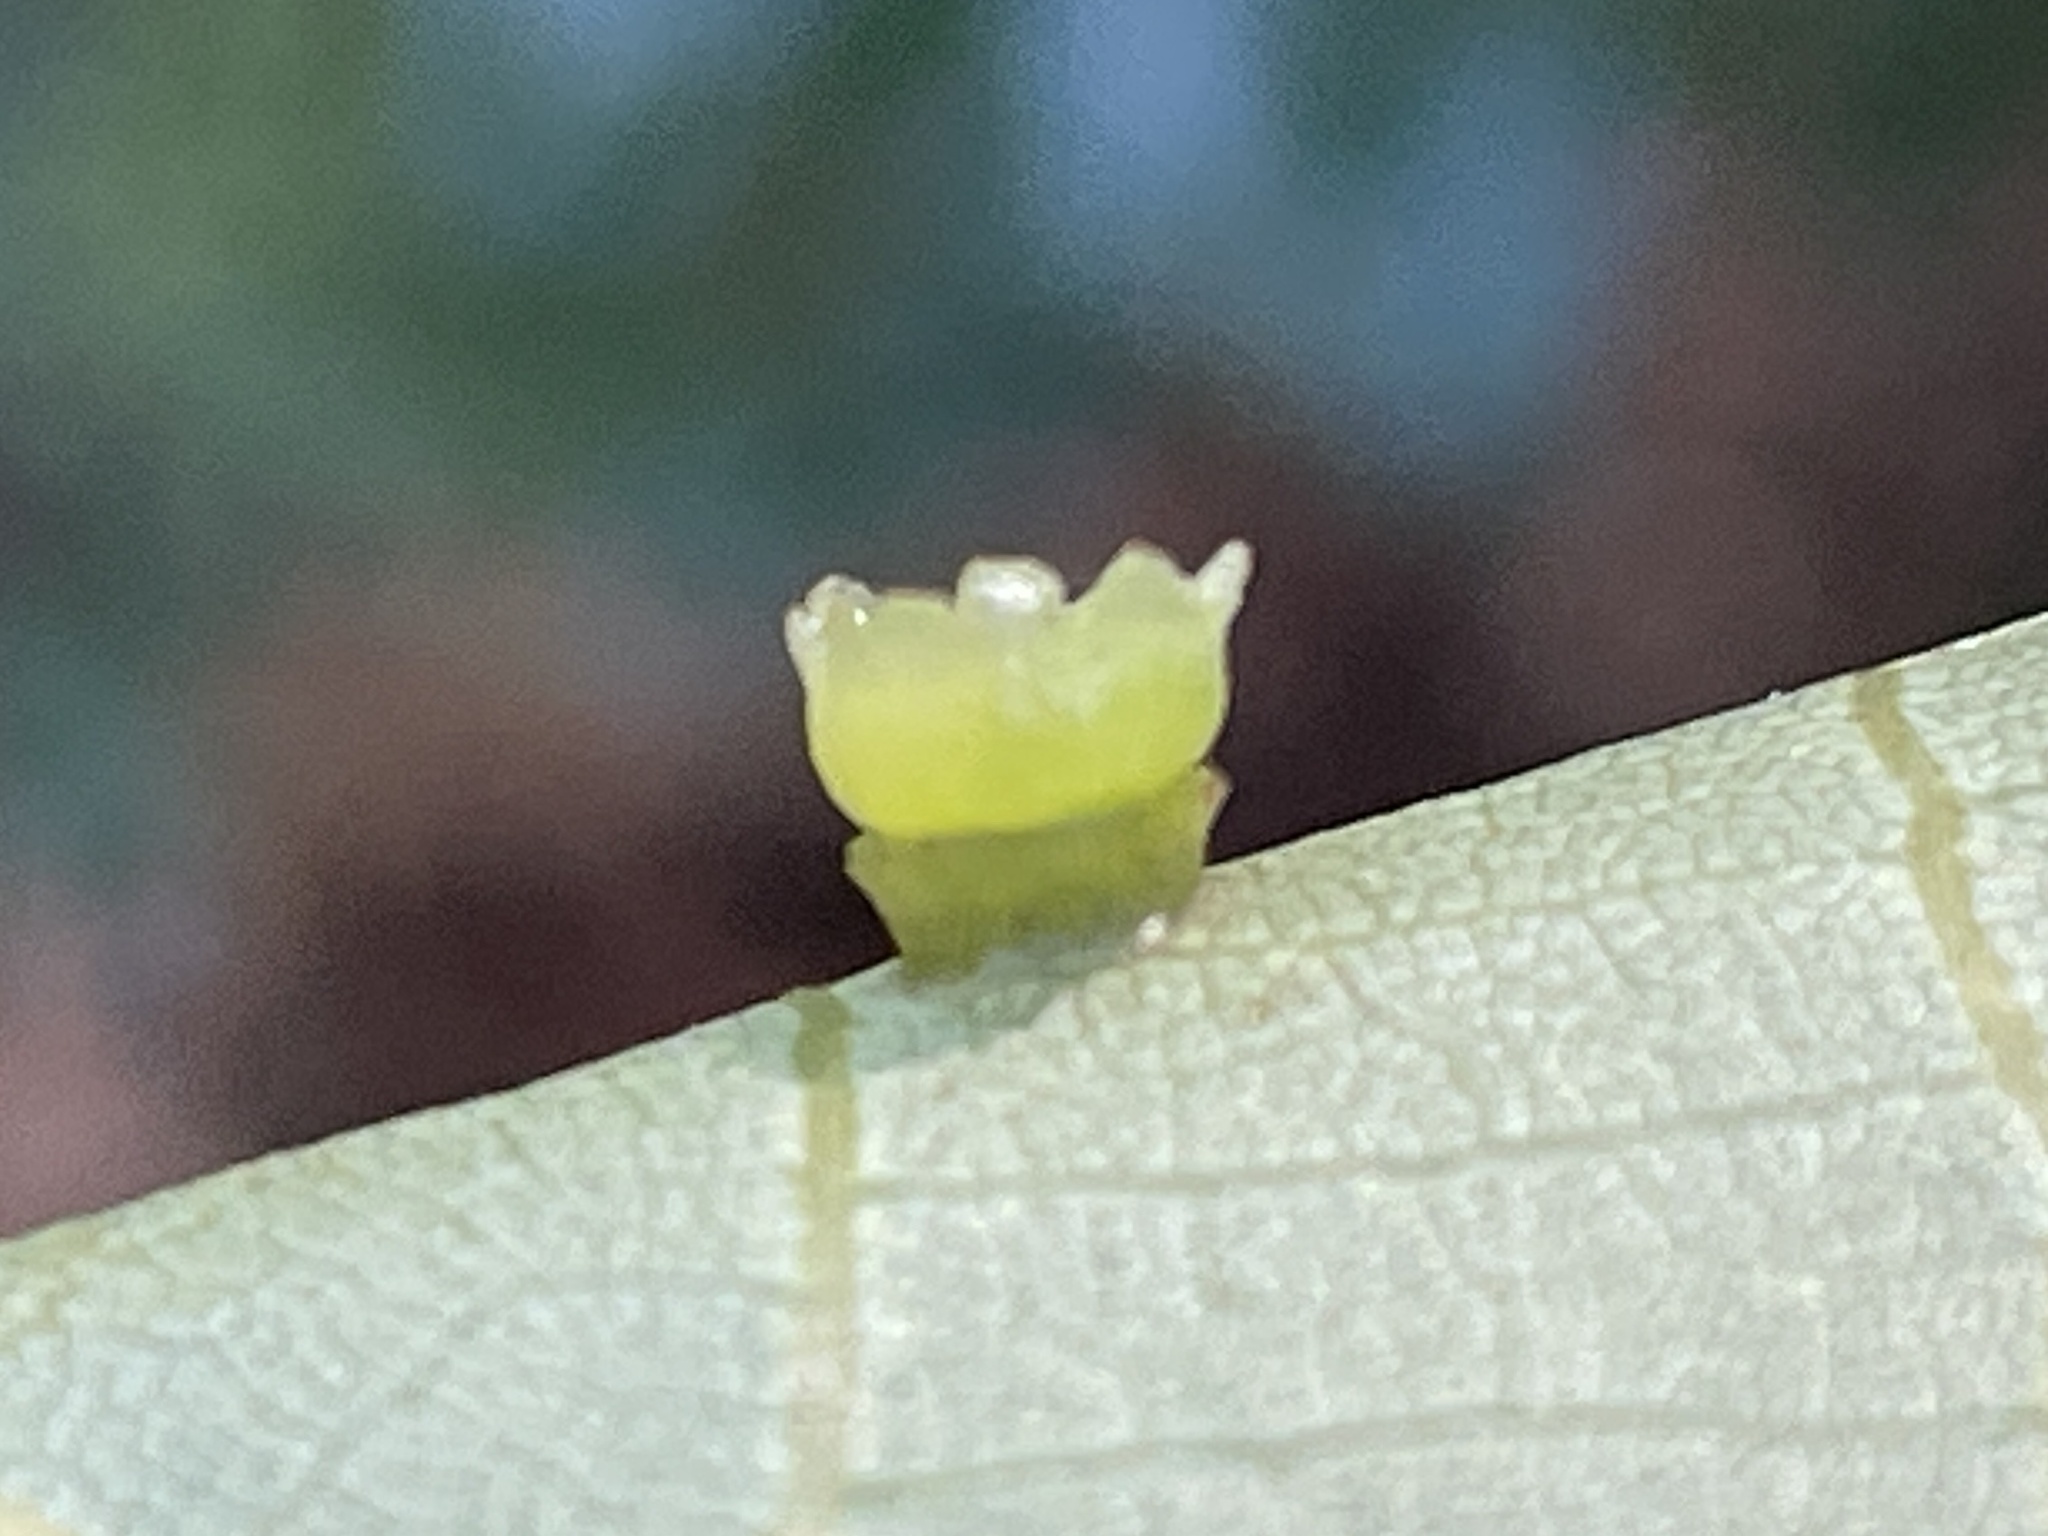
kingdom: Animalia
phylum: Arthropoda
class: Insecta
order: Diptera
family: Cecidomyiidae
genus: Caryomyia
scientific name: Caryomyia flaticrustum
